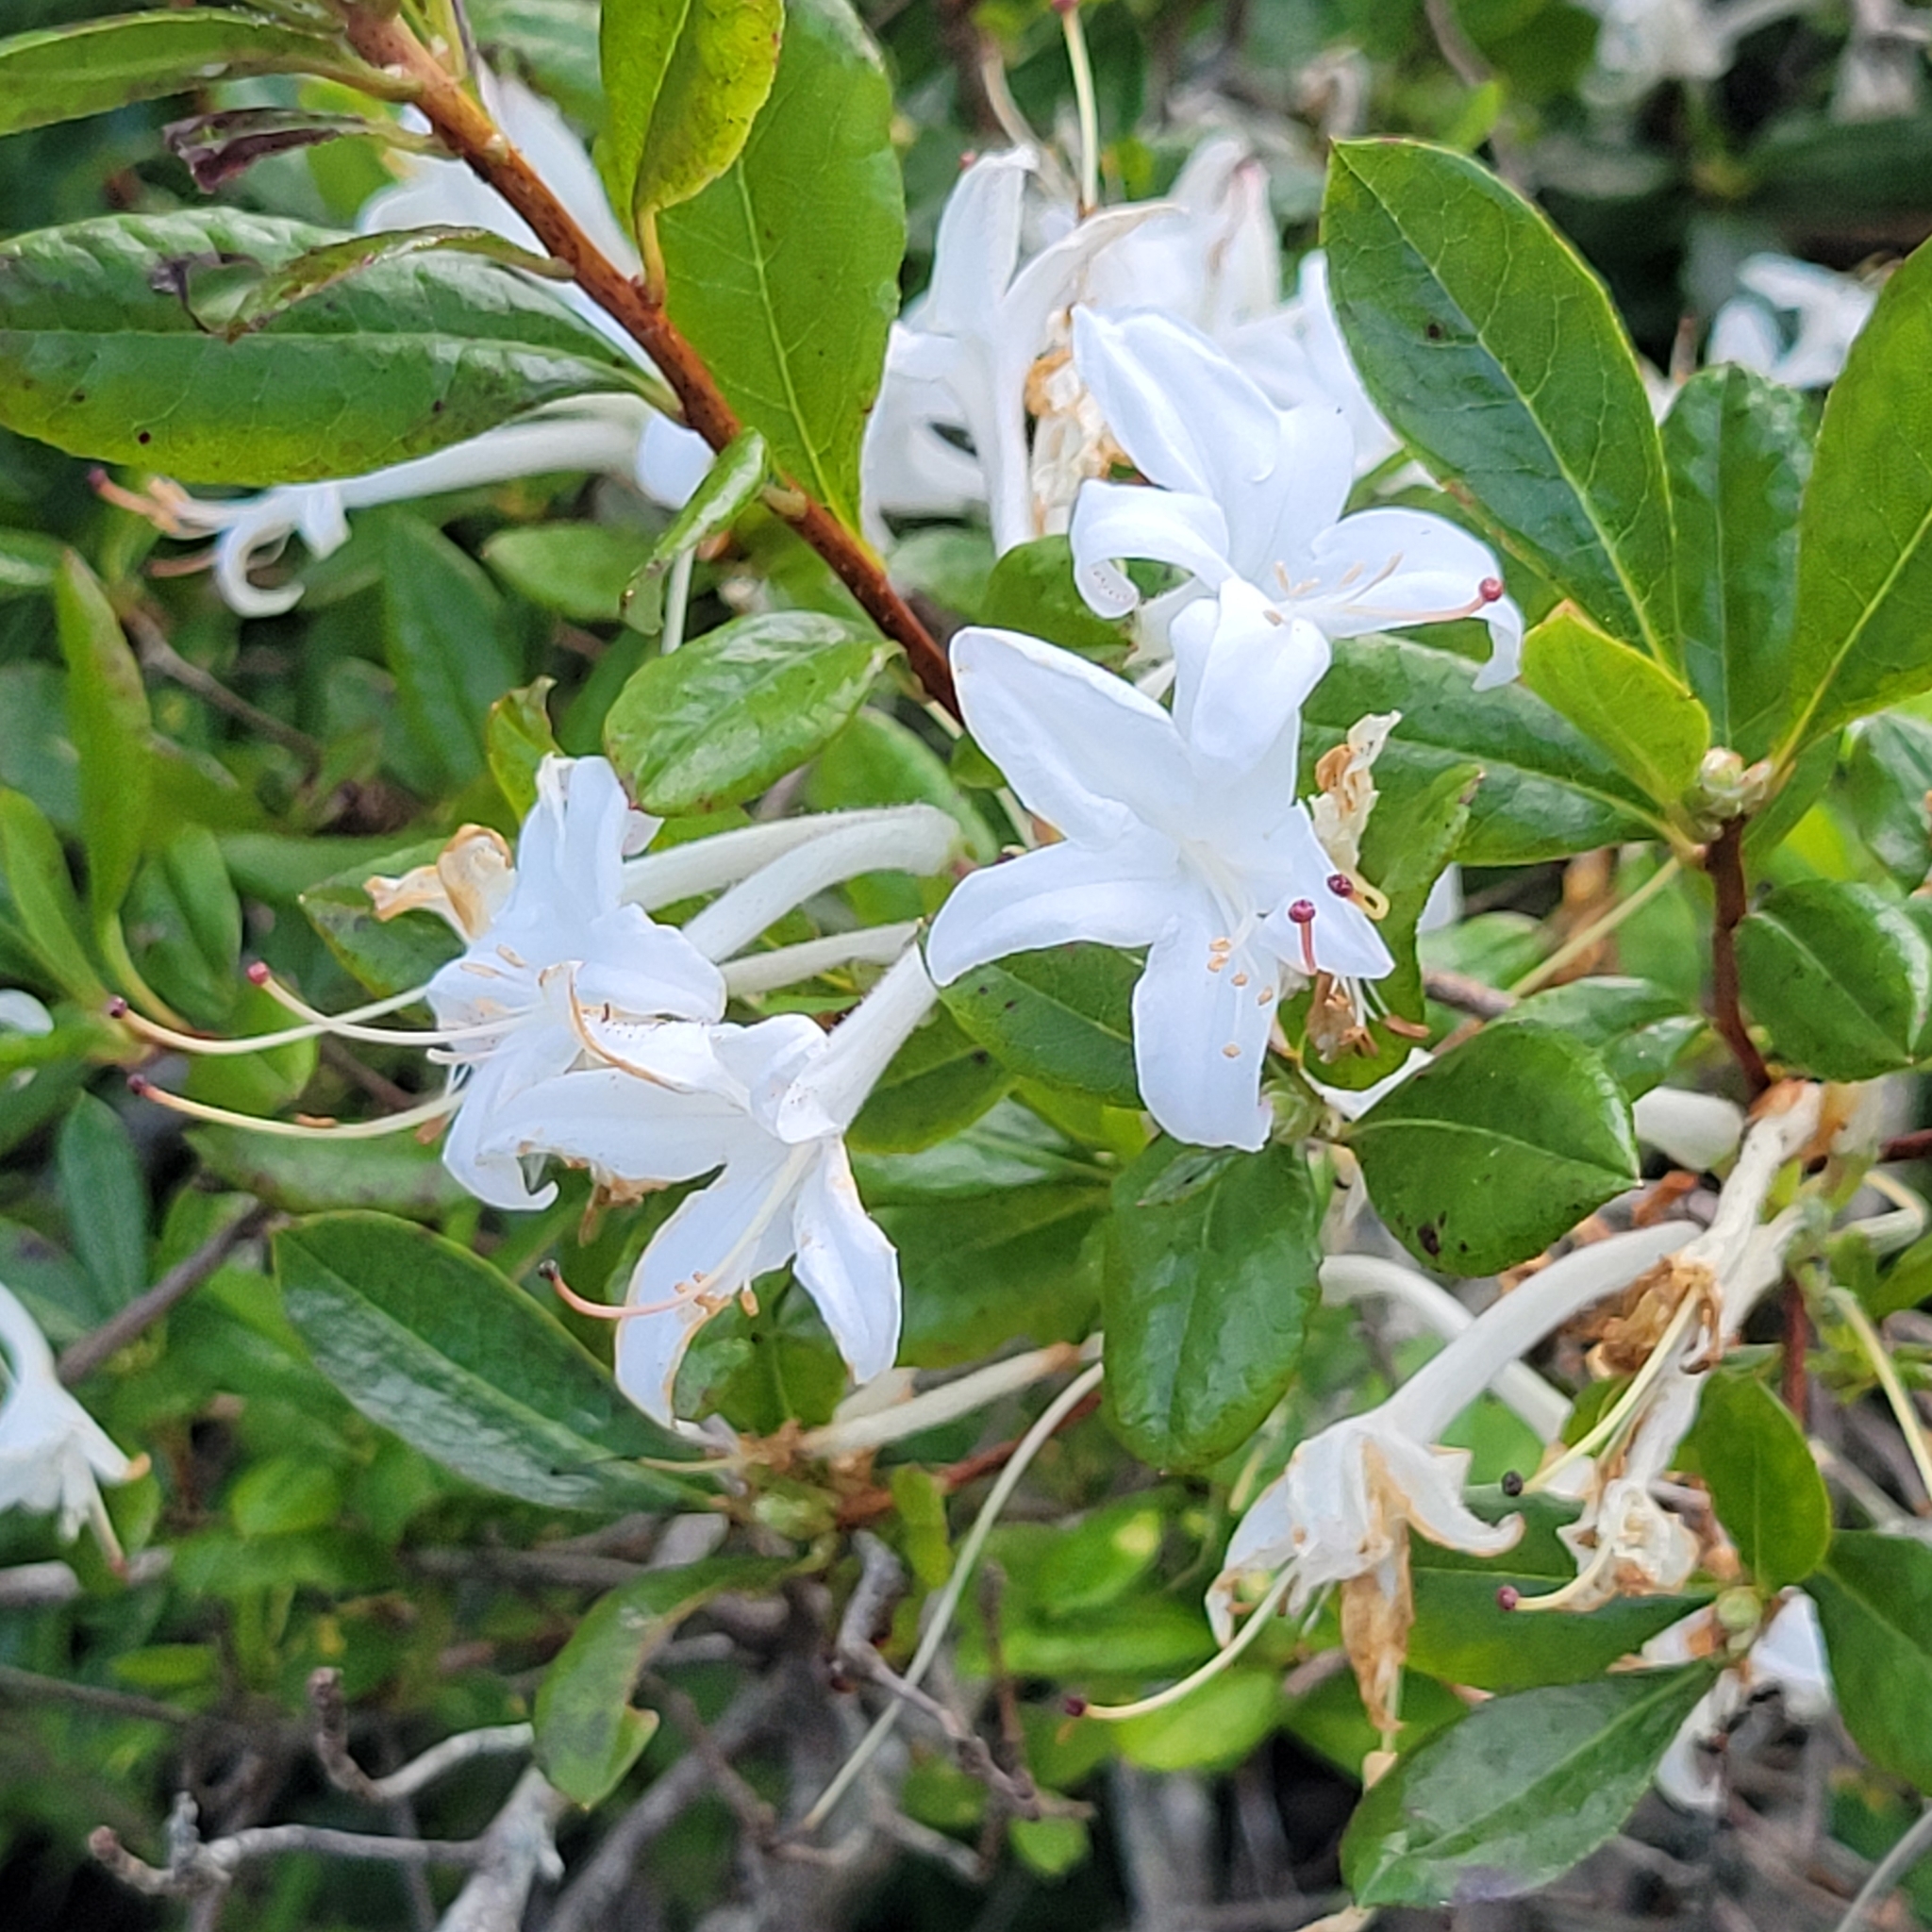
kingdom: Plantae
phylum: Tracheophyta
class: Magnoliopsida
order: Ericales
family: Ericaceae
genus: Rhododendron
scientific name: Rhododendron viscosum
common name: Clammy azalea
